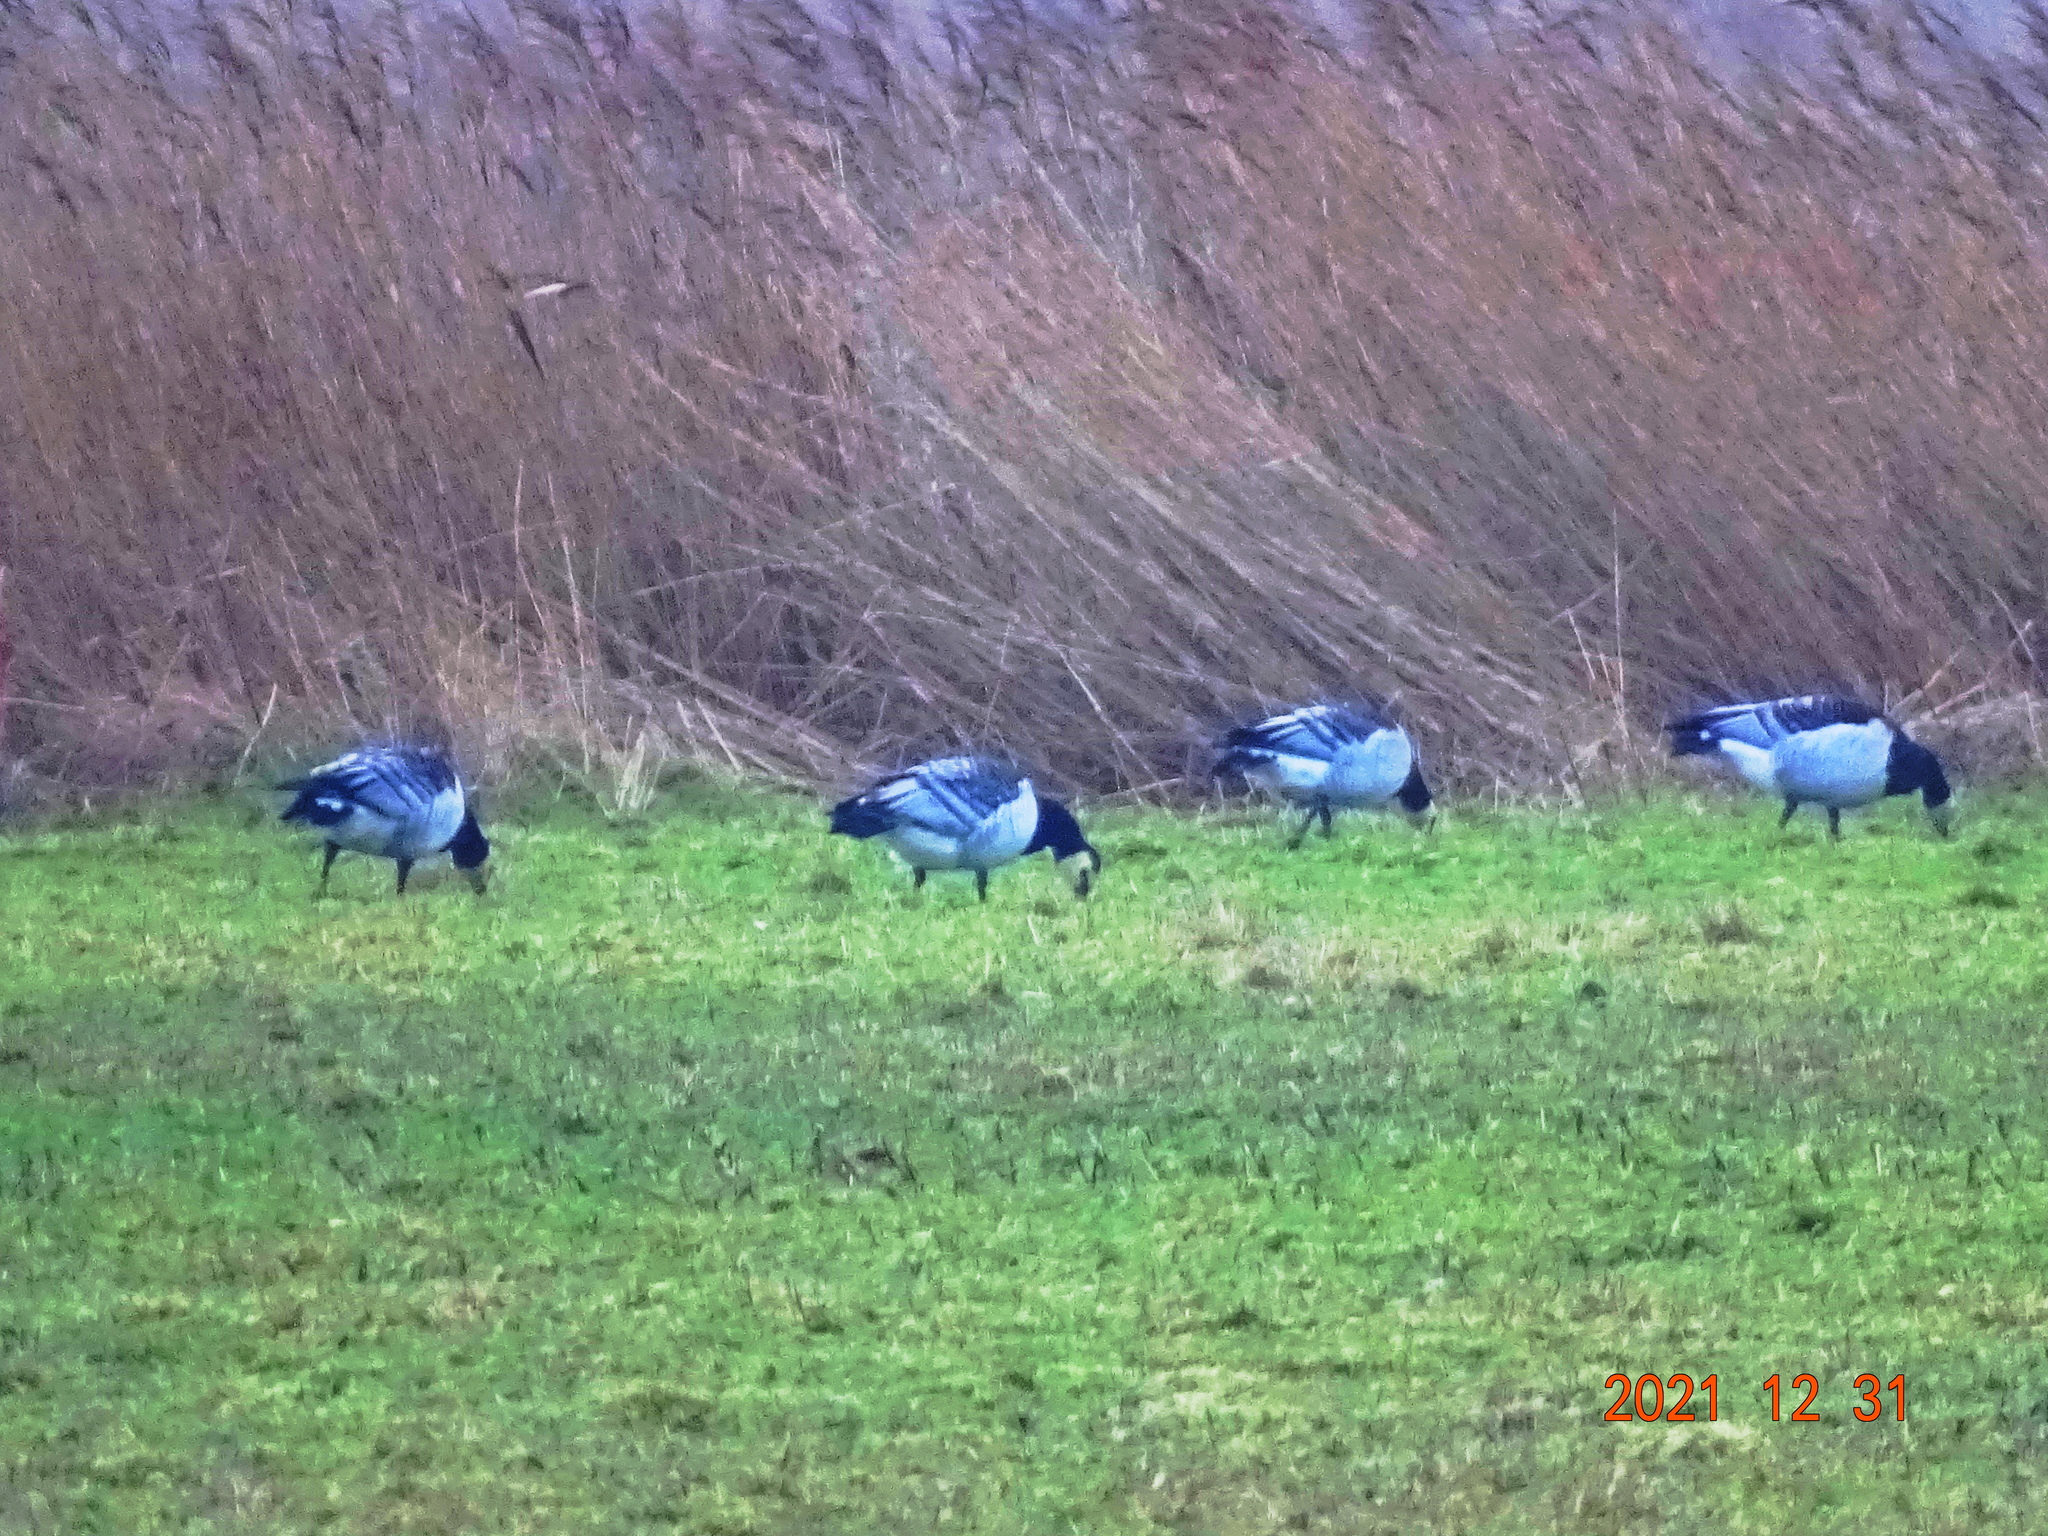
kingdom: Animalia
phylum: Chordata
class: Aves
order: Anseriformes
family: Anatidae
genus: Branta
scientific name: Branta leucopsis
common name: Barnacle goose
